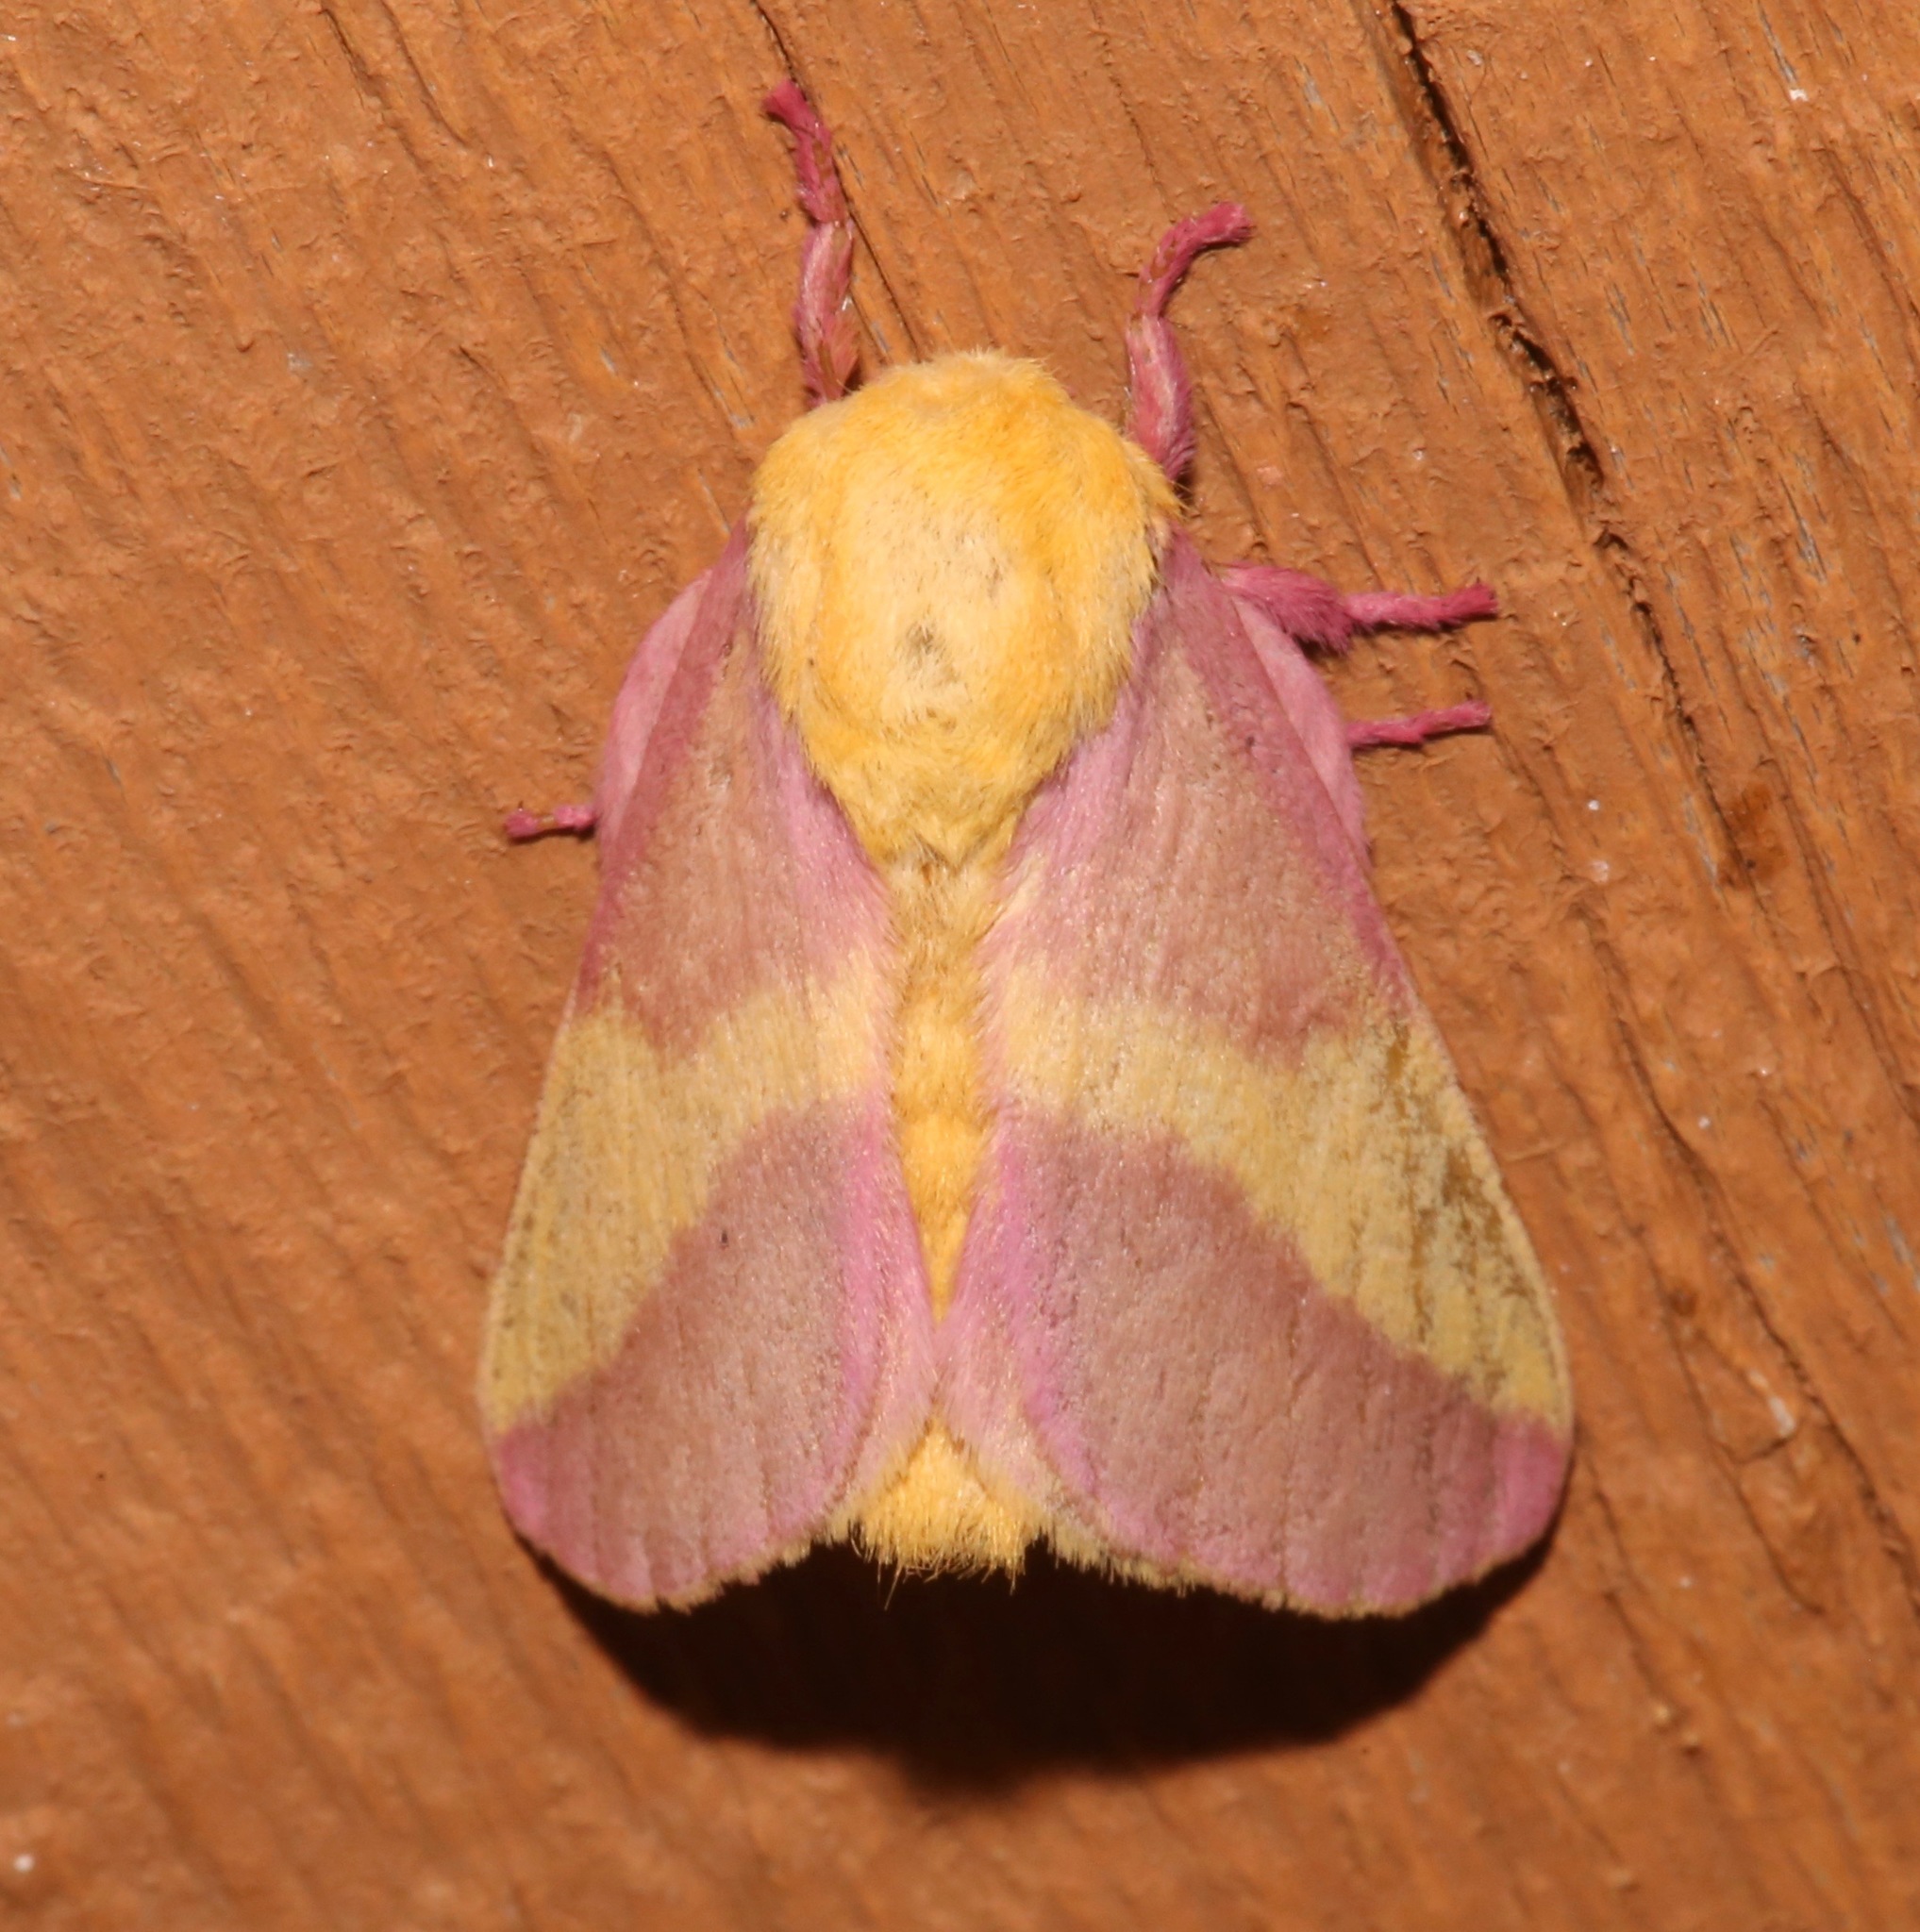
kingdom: Animalia
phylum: Arthropoda
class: Insecta
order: Lepidoptera
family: Saturniidae
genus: Dryocampa
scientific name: Dryocampa rubicunda
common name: Rosy maple moth
